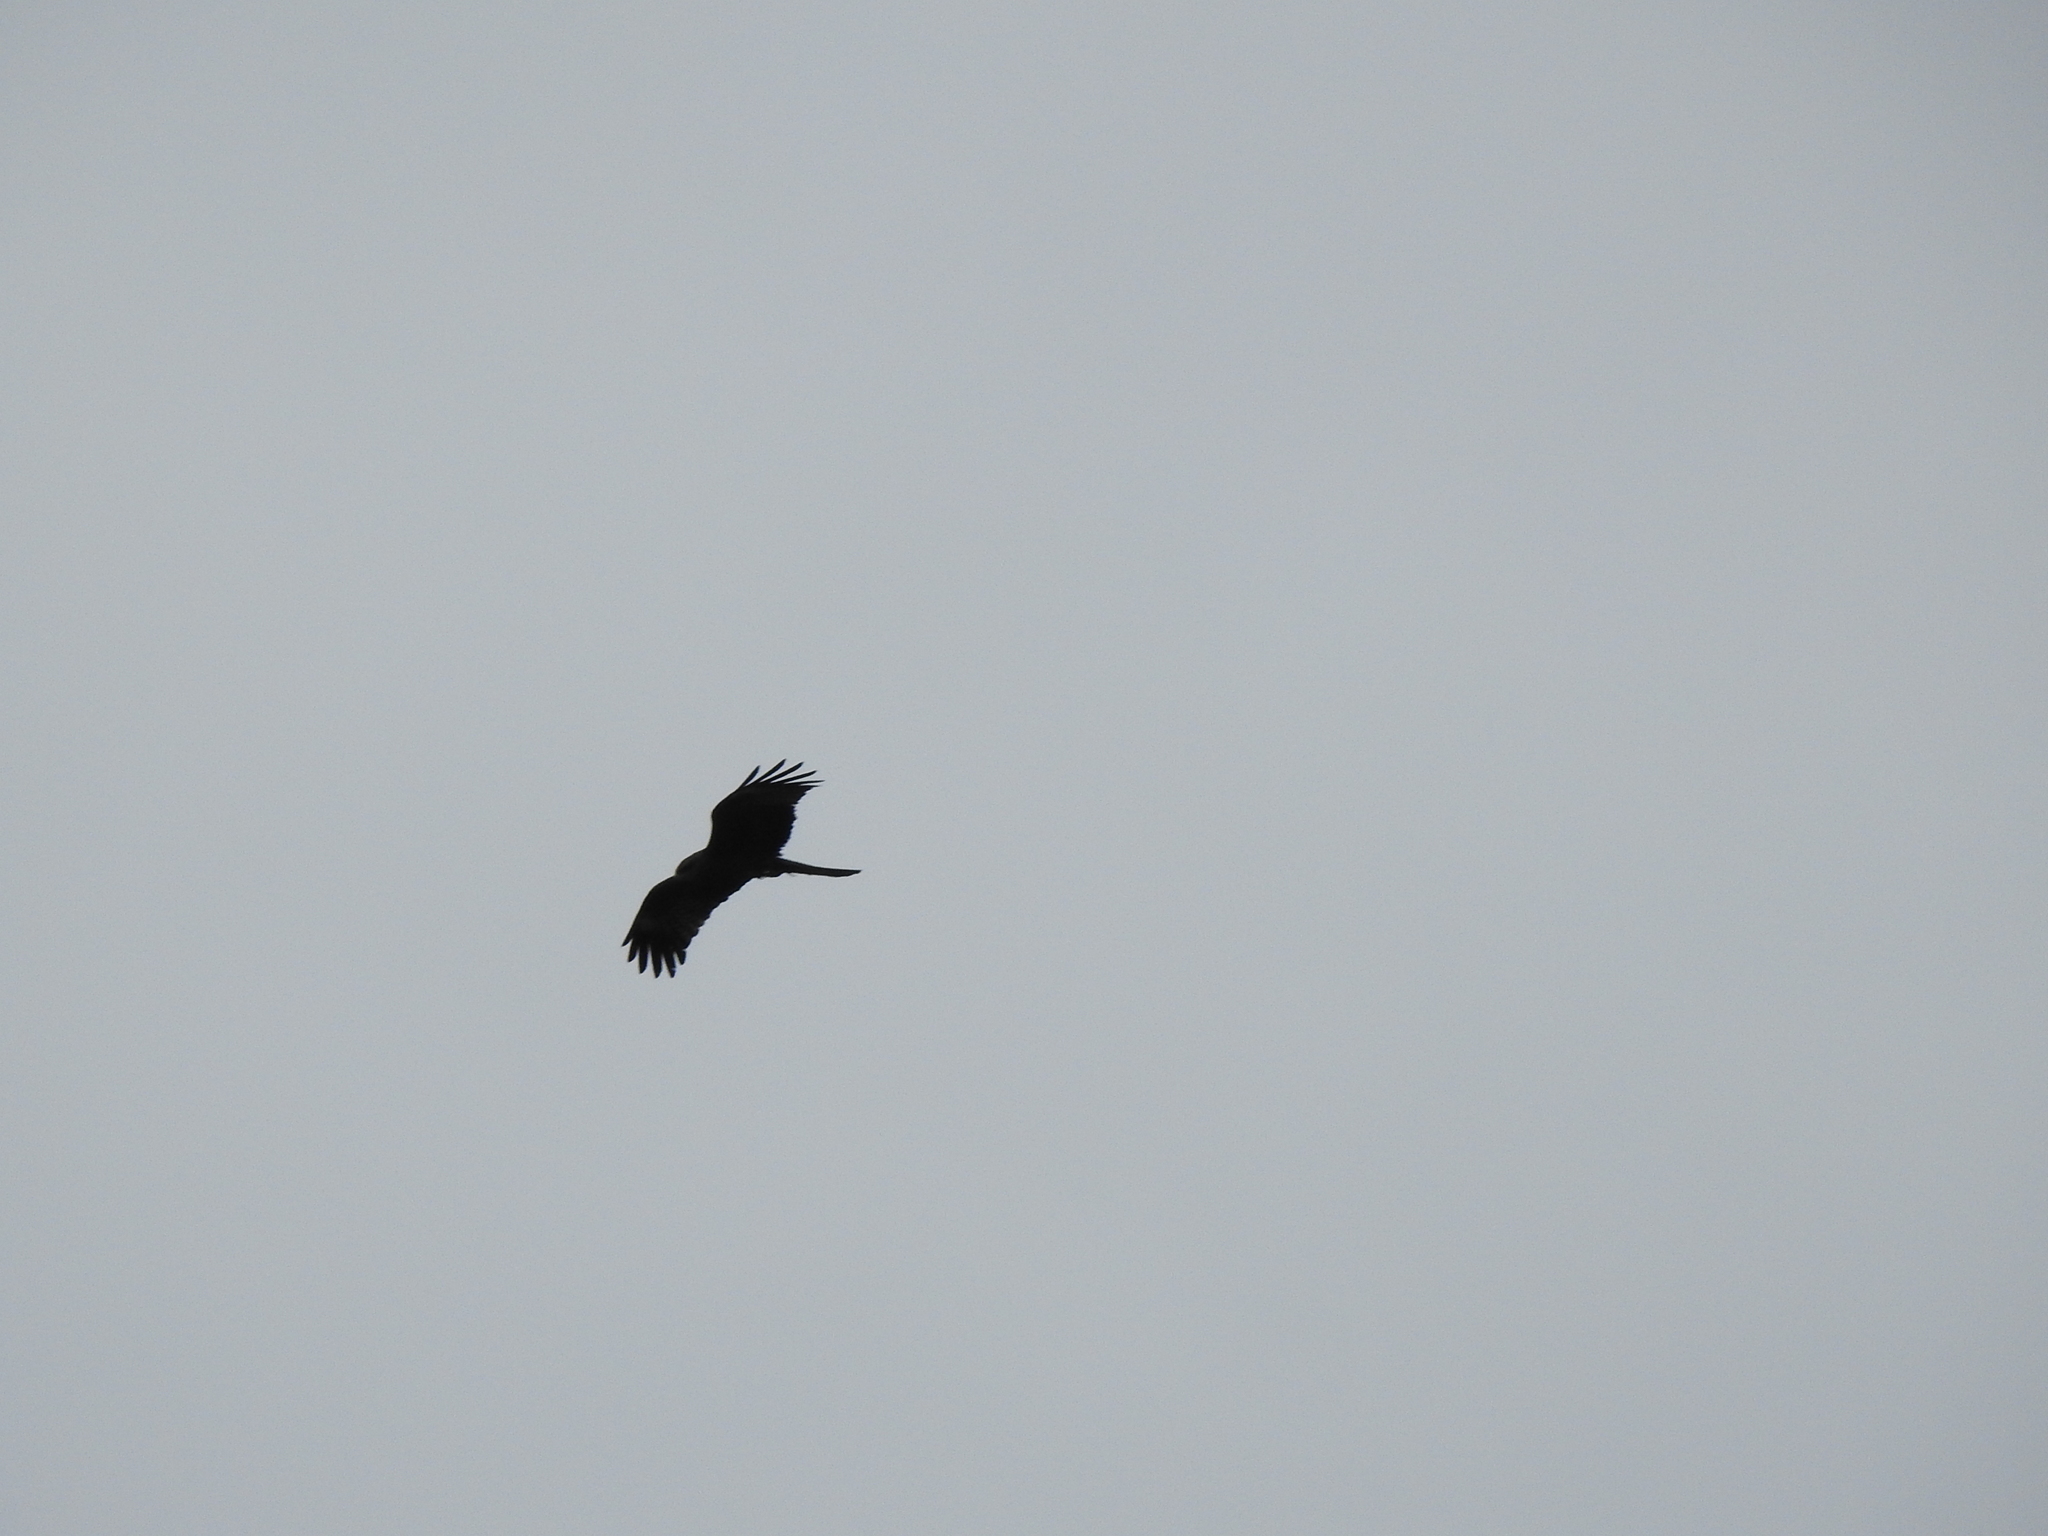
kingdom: Animalia
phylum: Chordata
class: Aves
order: Accipitriformes
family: Accipitridae
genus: Milvus
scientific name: Milvus migrans
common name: Black kite
